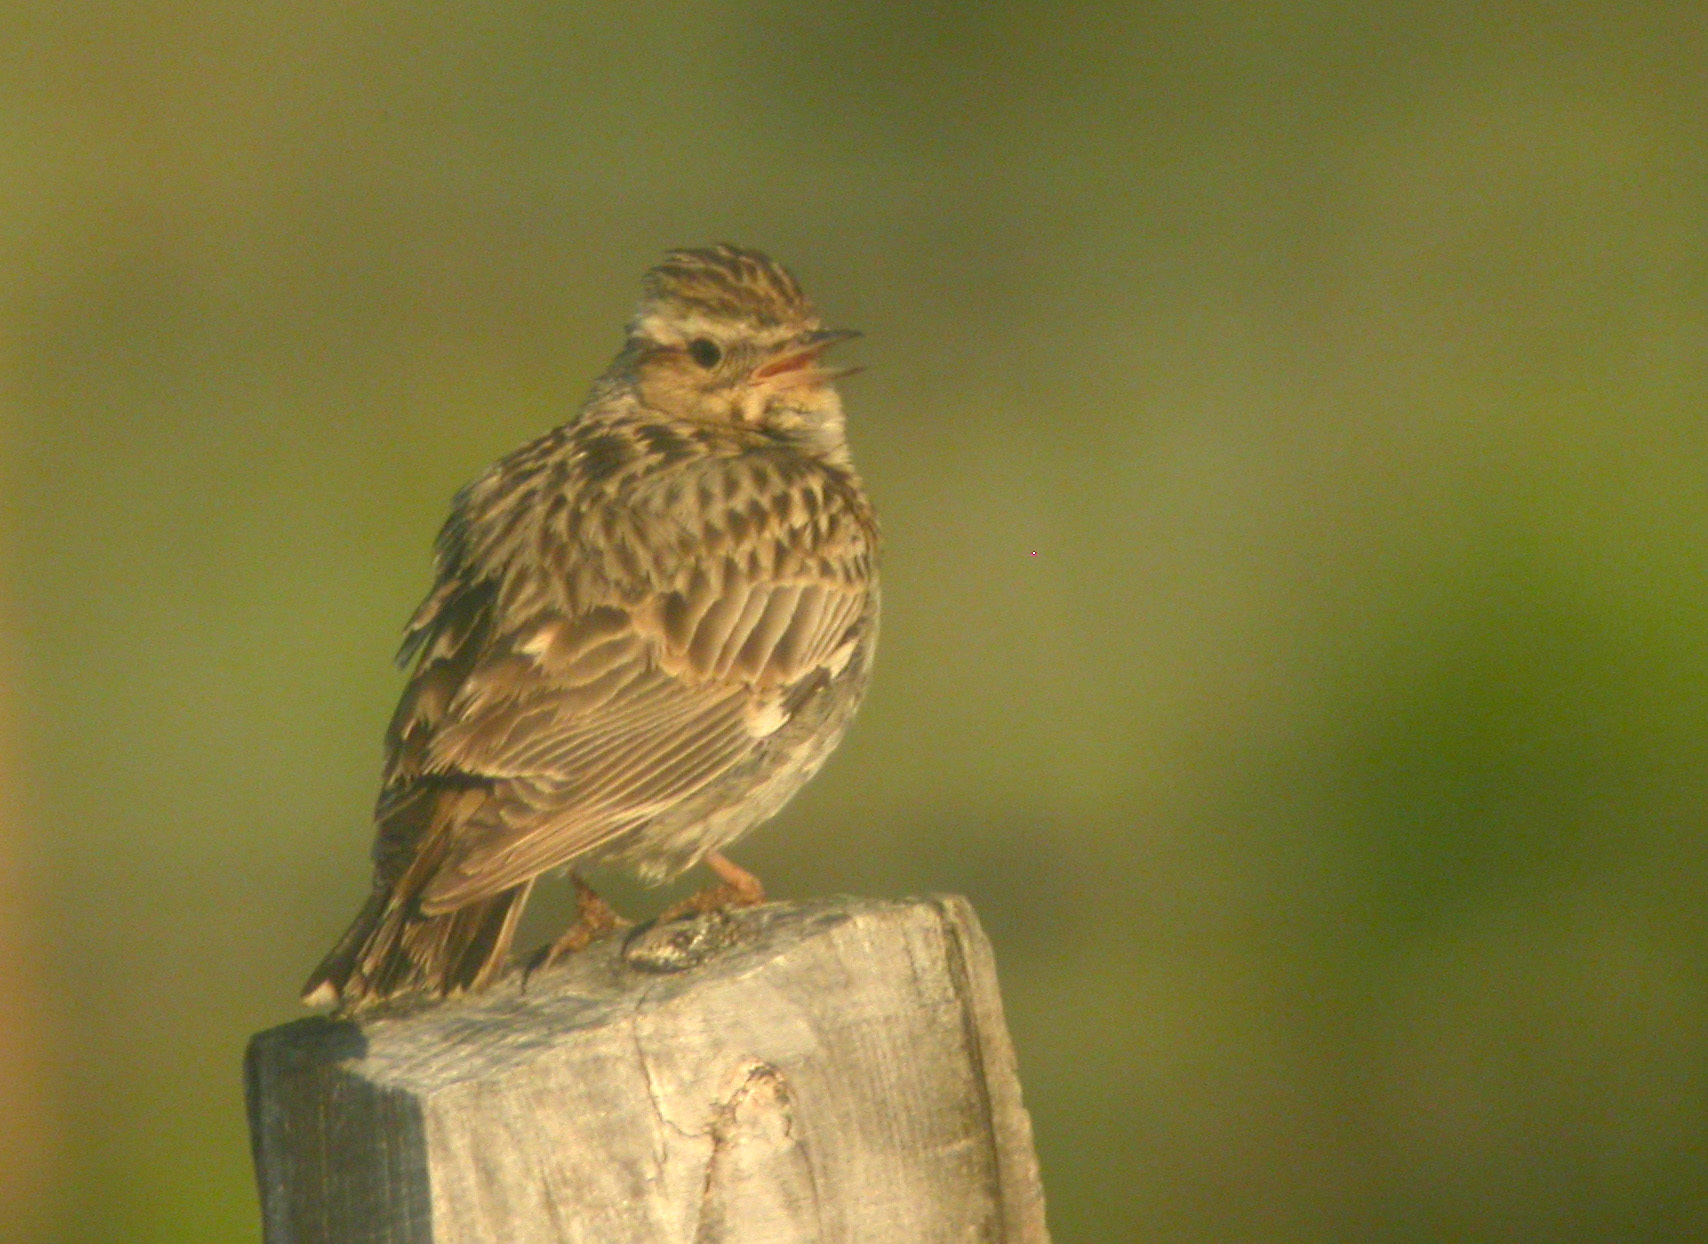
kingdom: Animalia
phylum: Chordata
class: Aves
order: Passeriformes
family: Alaudidae
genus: Lullula
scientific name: Lullula arborea
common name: Woodlark
